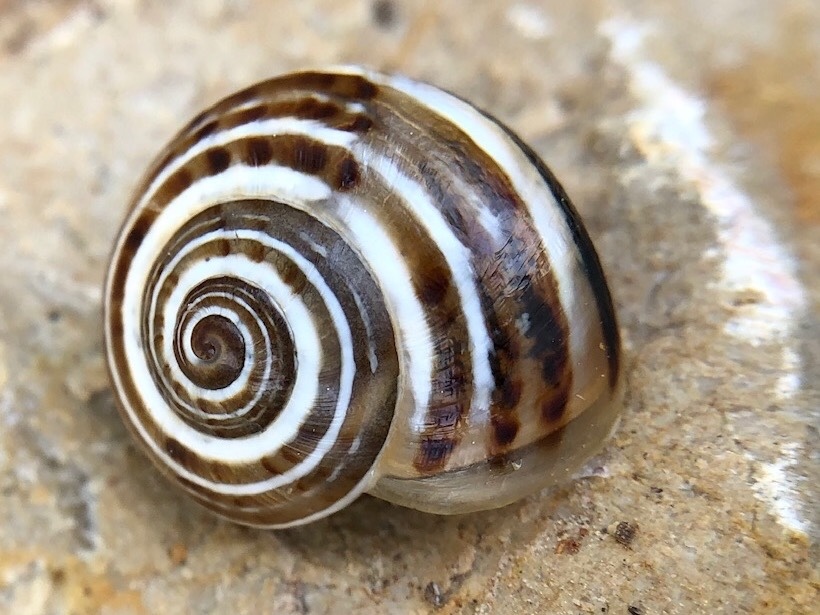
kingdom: Animalia
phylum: Mollusca
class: Gastropoda
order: Stylommatophora
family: Helicidae
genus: Pseudotachea
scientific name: Pseudotachea splendida
